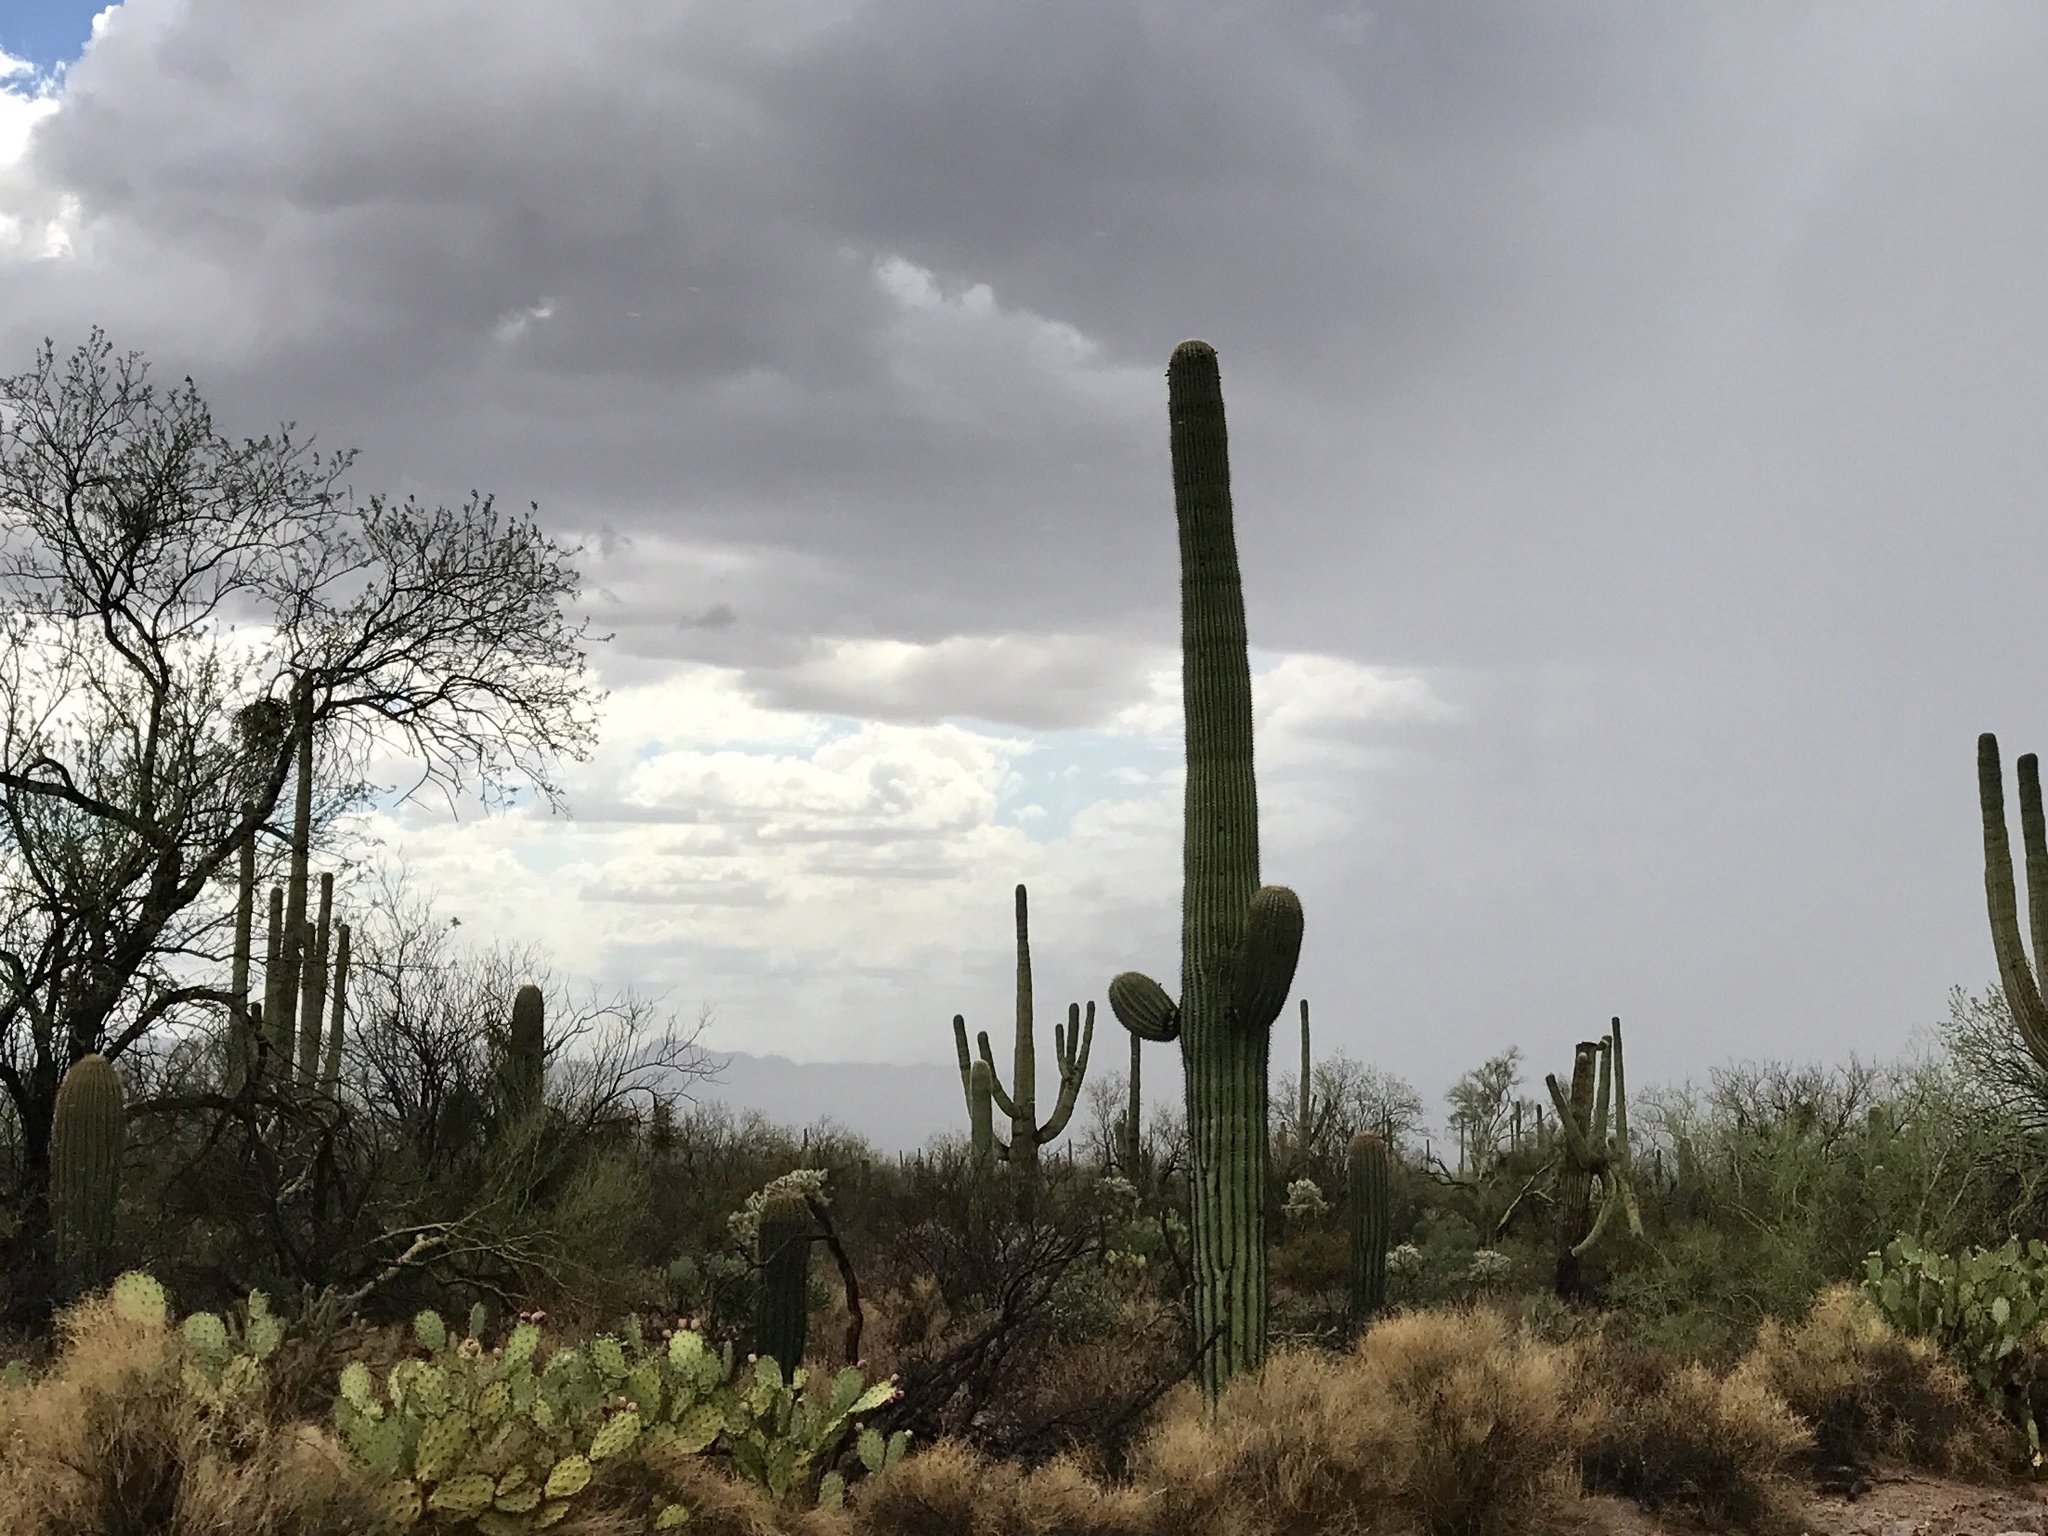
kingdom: Plantae
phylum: Tracheophyta
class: Magnoliopsida
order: Caryophyllales
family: Cactaceae
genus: Carnegiea
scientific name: Carnegiea gigantea
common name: Saguaro
